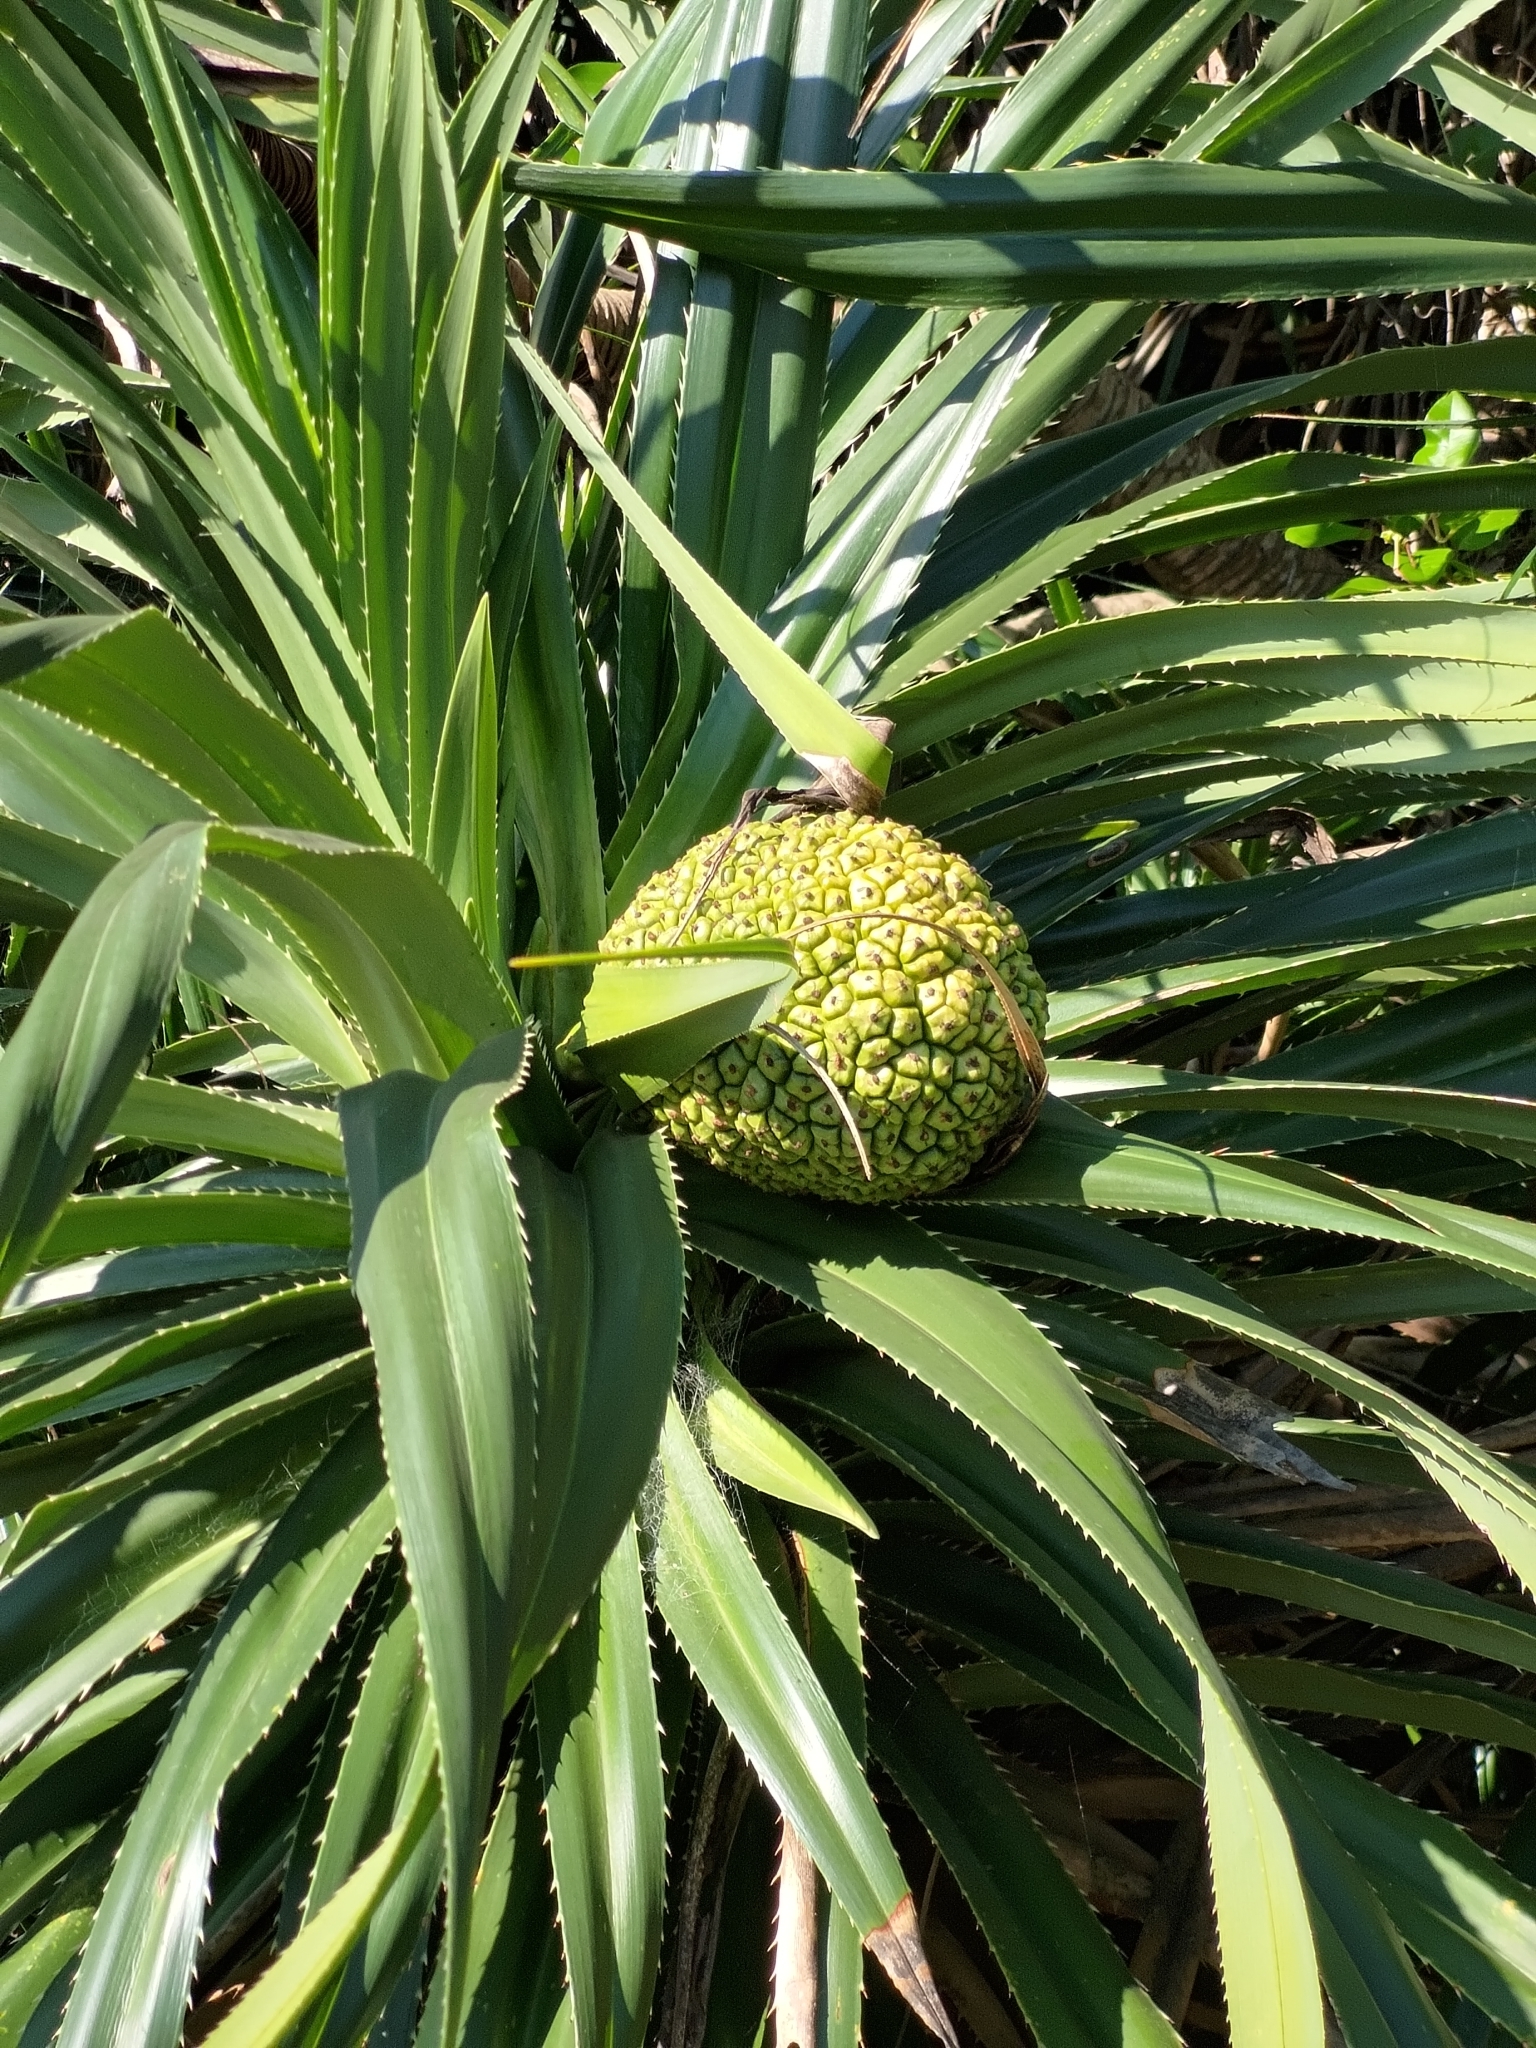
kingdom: Plantae
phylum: Tracheophyta
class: Liliopsida
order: Pandanales
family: Pandanaceae
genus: Pandanus
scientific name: Pandanus odorifer
